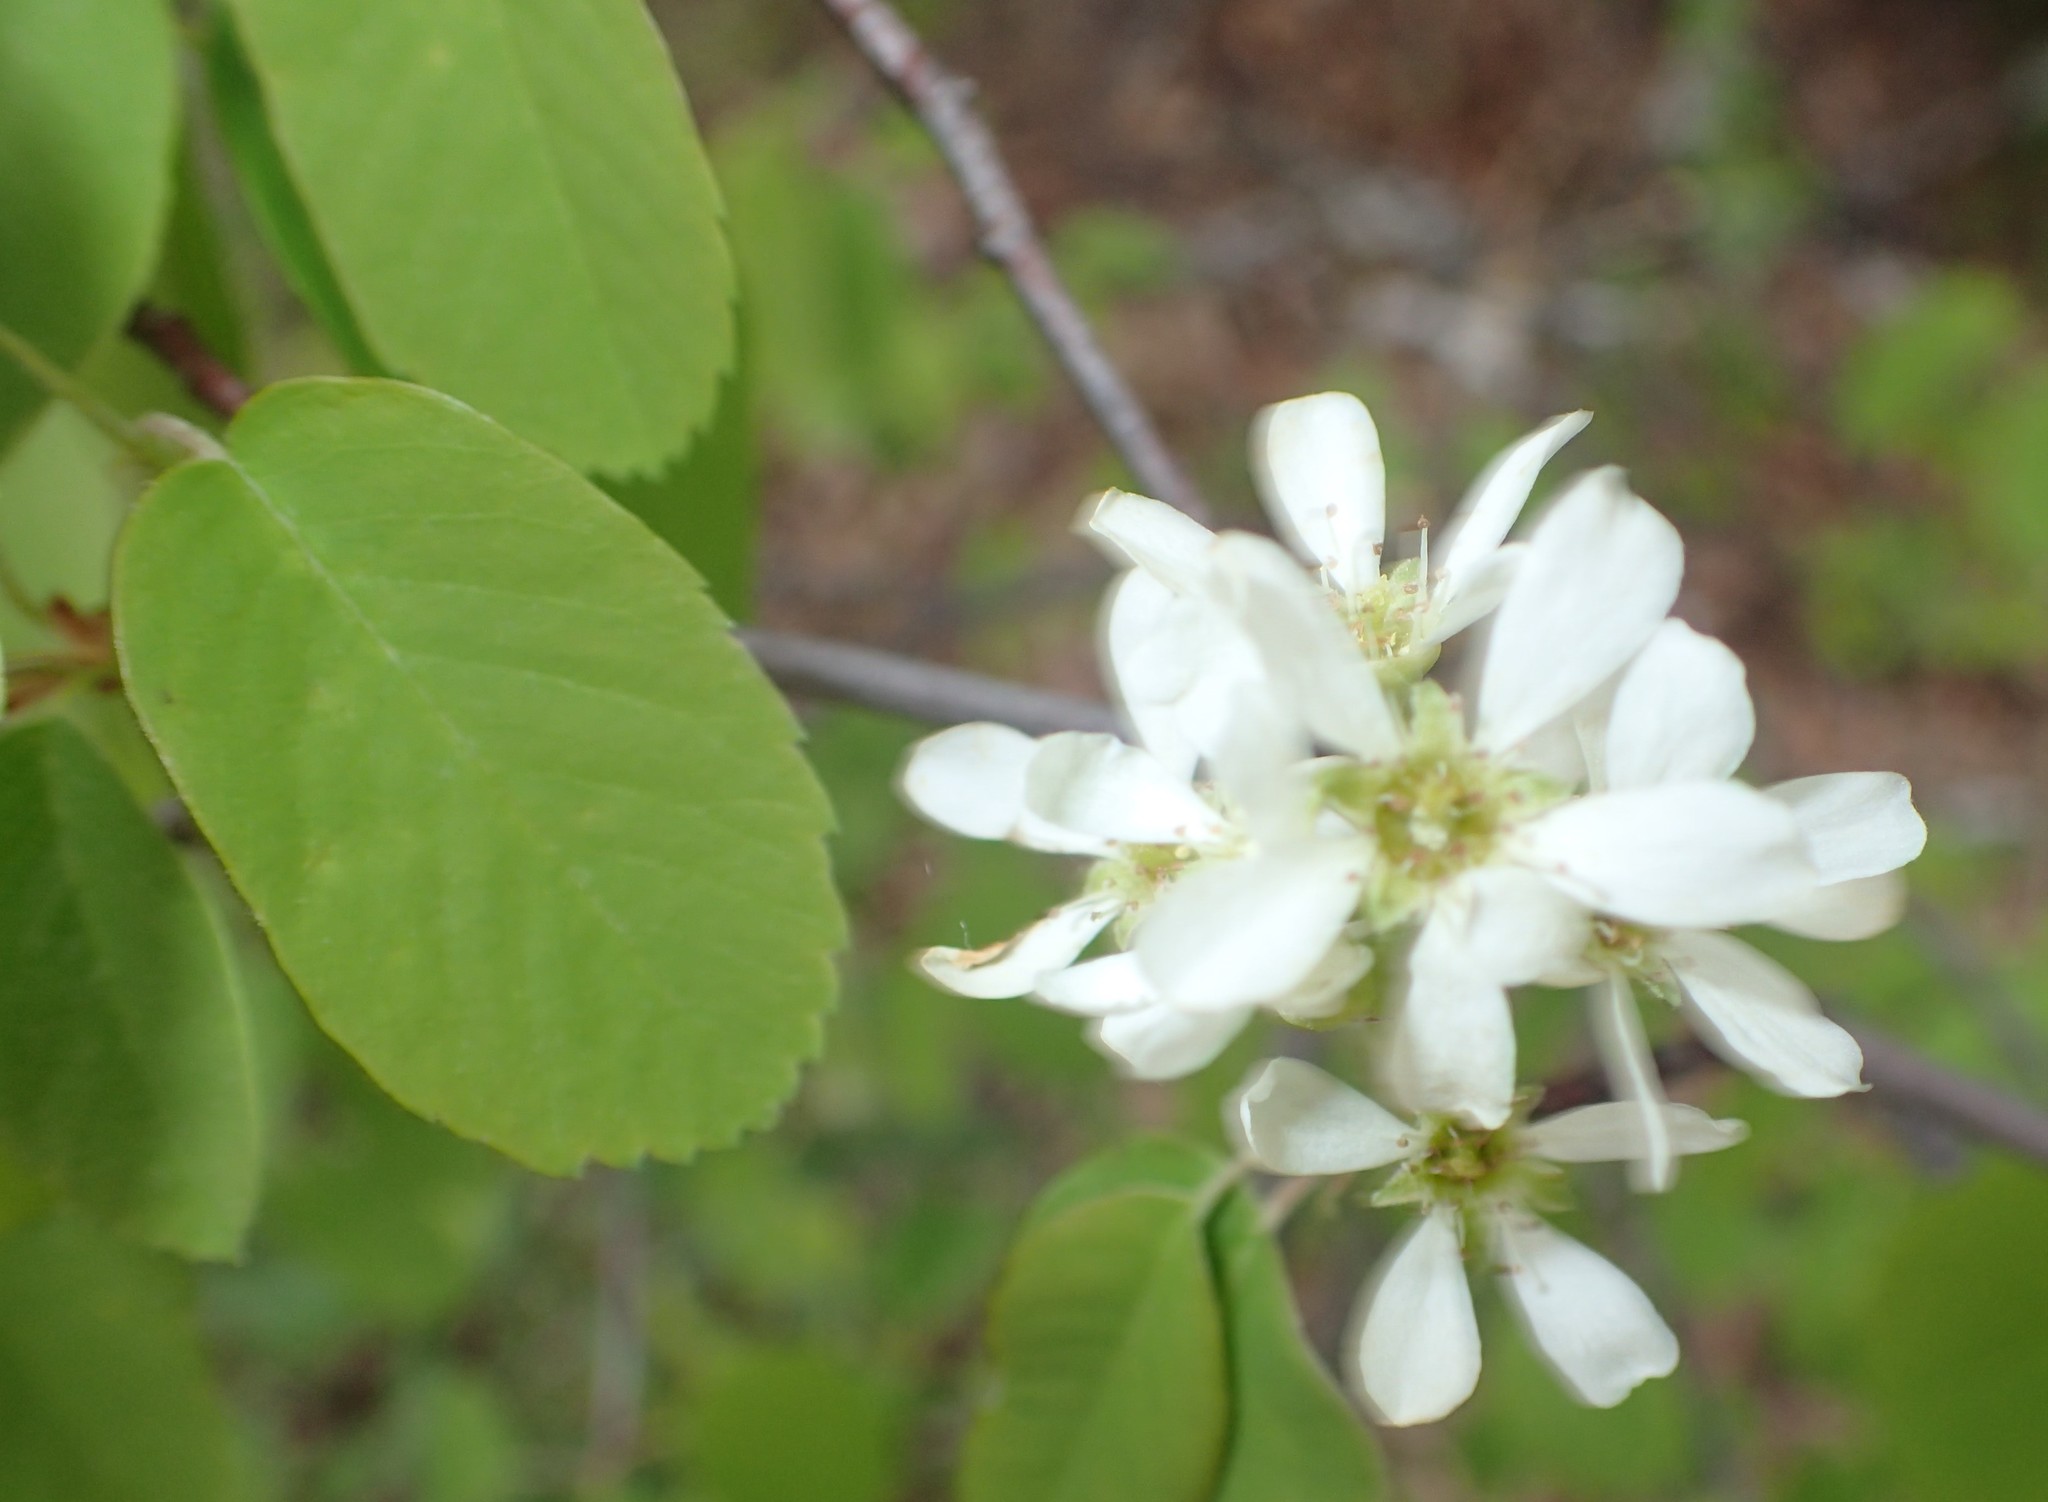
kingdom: Plantae
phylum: Tracheophyta
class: Magnoliopsida
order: Rosales
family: Rosaceae
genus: Amelanchier
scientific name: Amelanchier alnifolia
